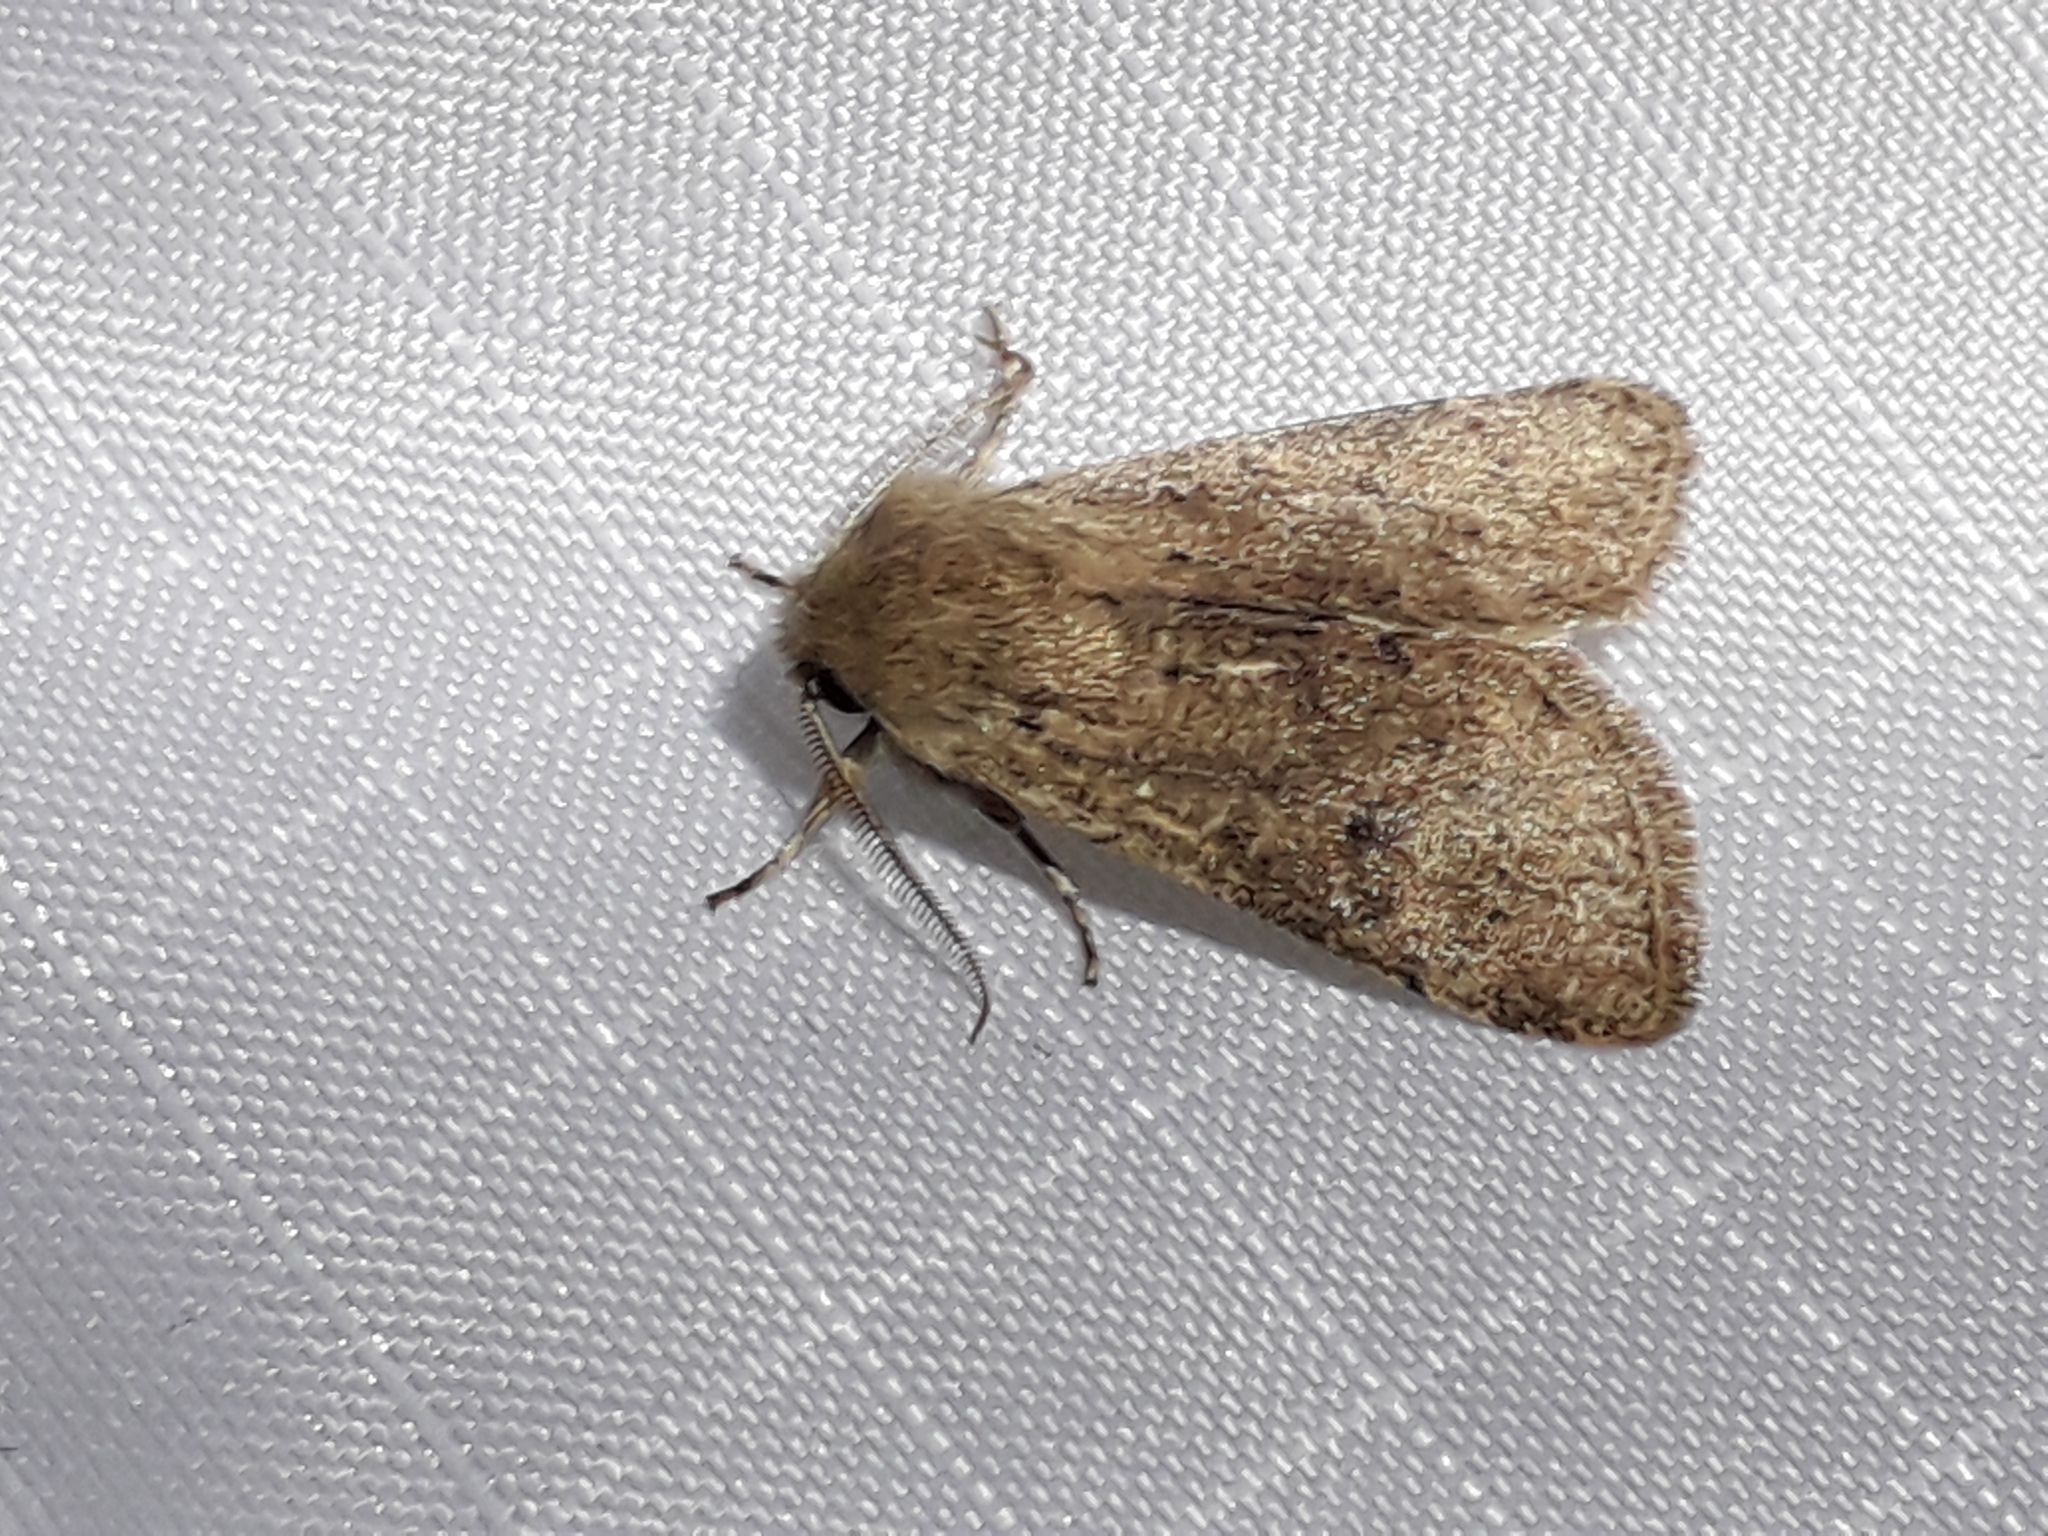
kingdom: Animalia
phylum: Arthropoda
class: Insecta
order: Lepidoptera
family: Noctuidae
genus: Orthosia
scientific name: Orthosia cruda
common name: Small quaker
